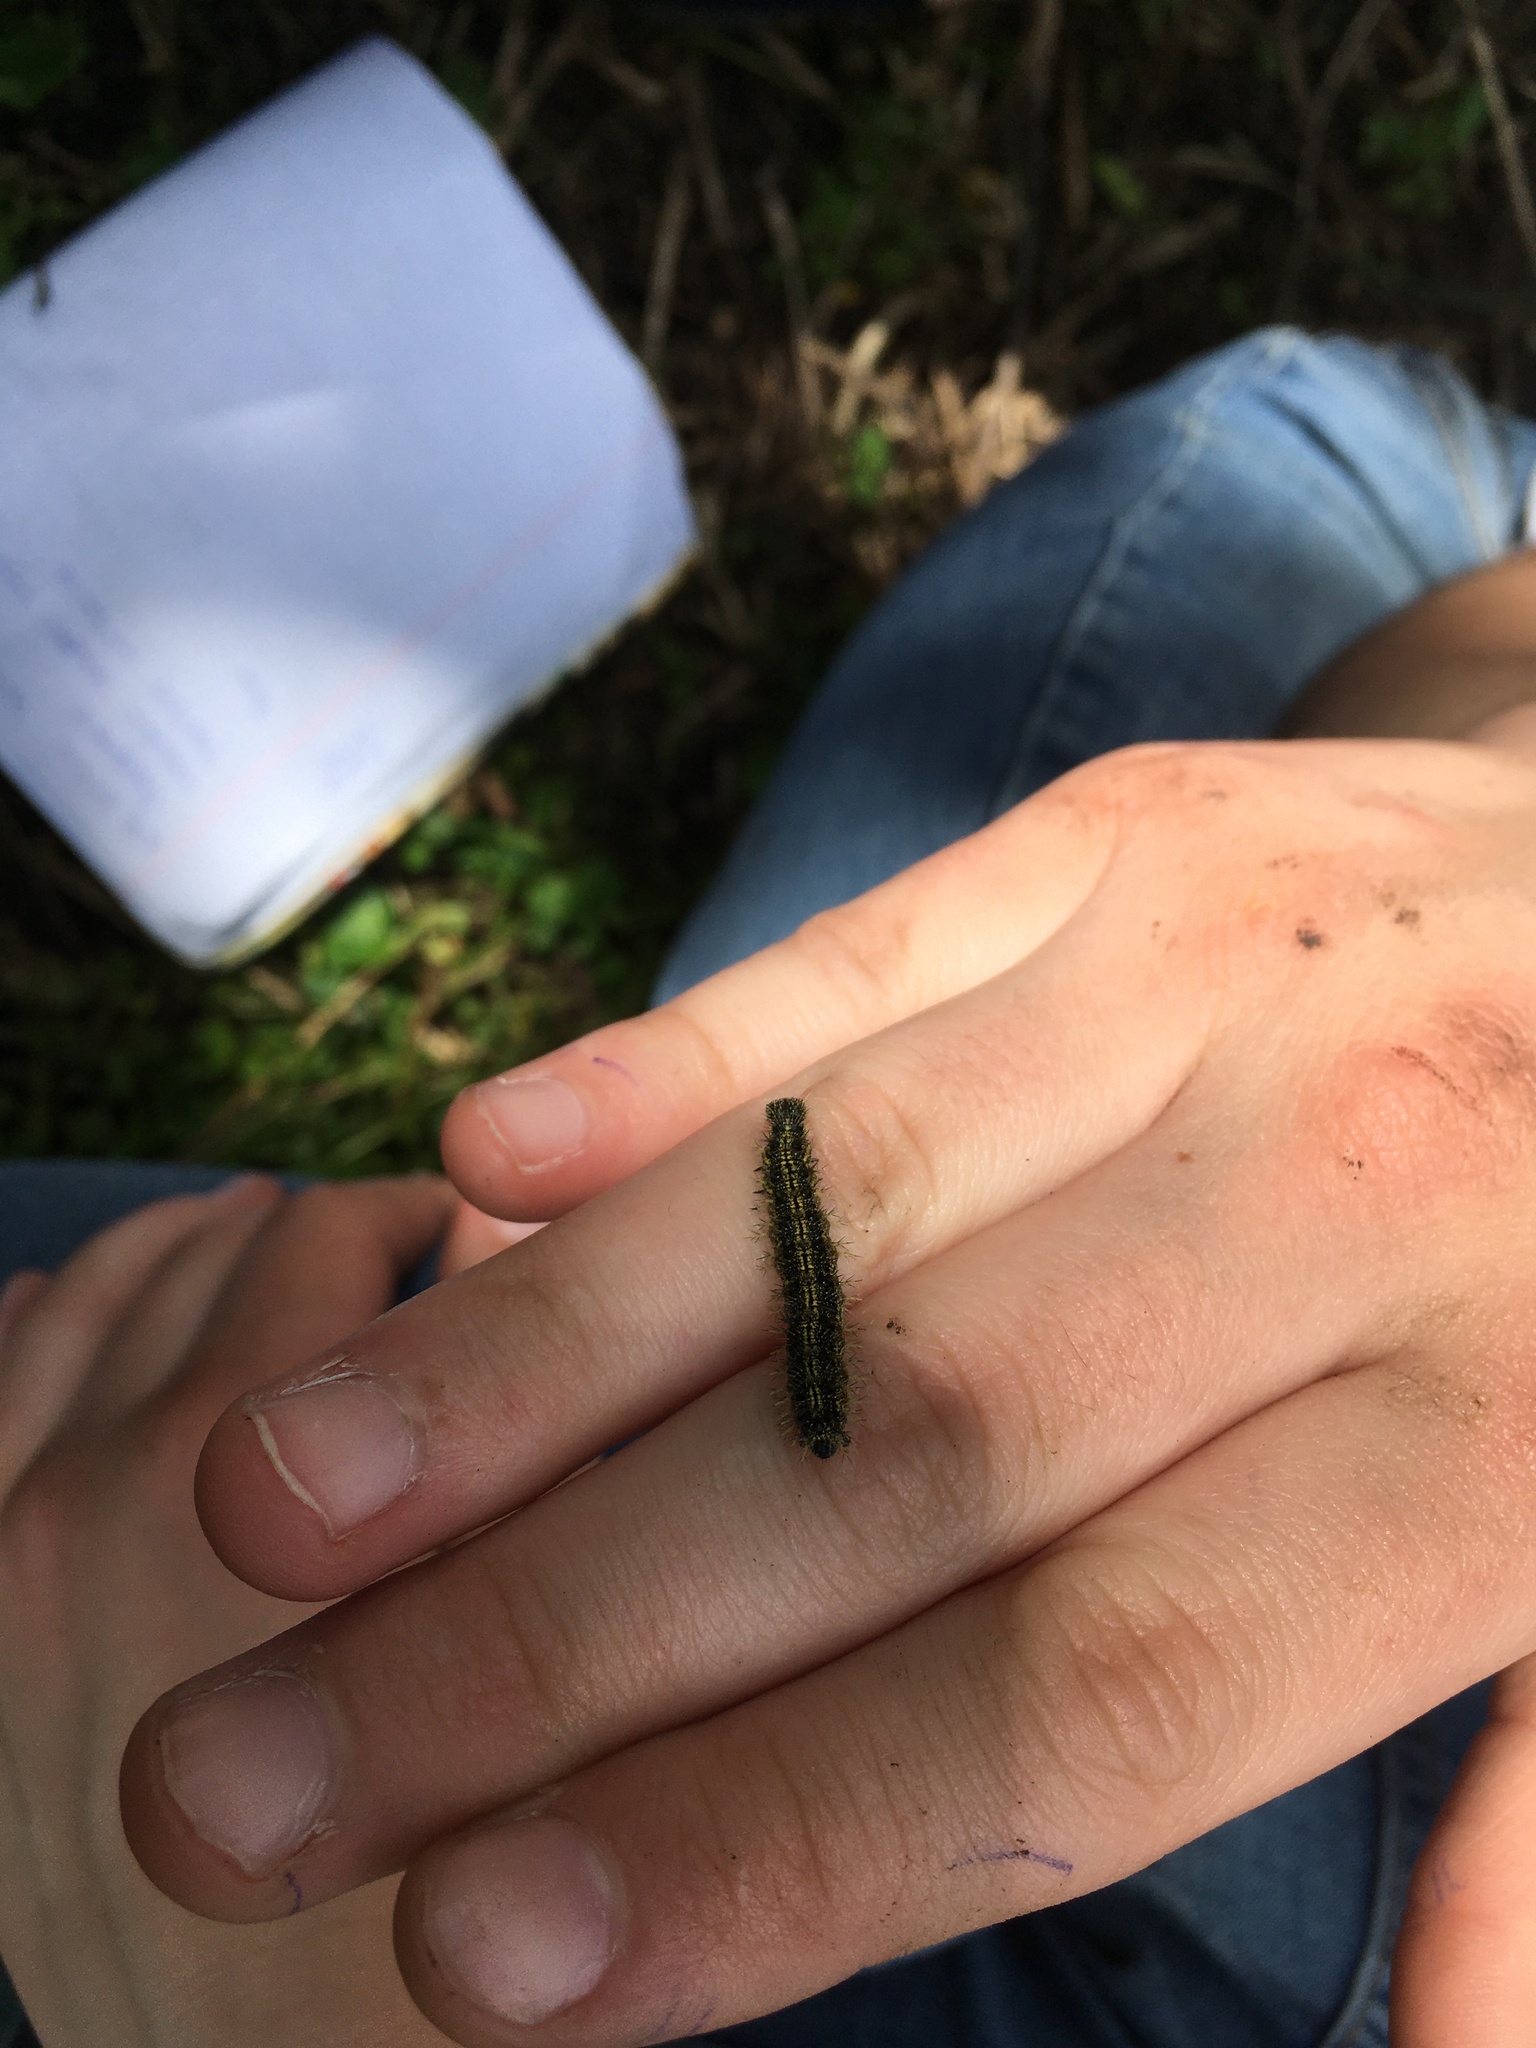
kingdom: Animalia
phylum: Arthropoda
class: Insecta
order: Lepidoptera
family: Nymphalidae
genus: Aglais
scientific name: Aglais urticae
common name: Small tortoiseshell
